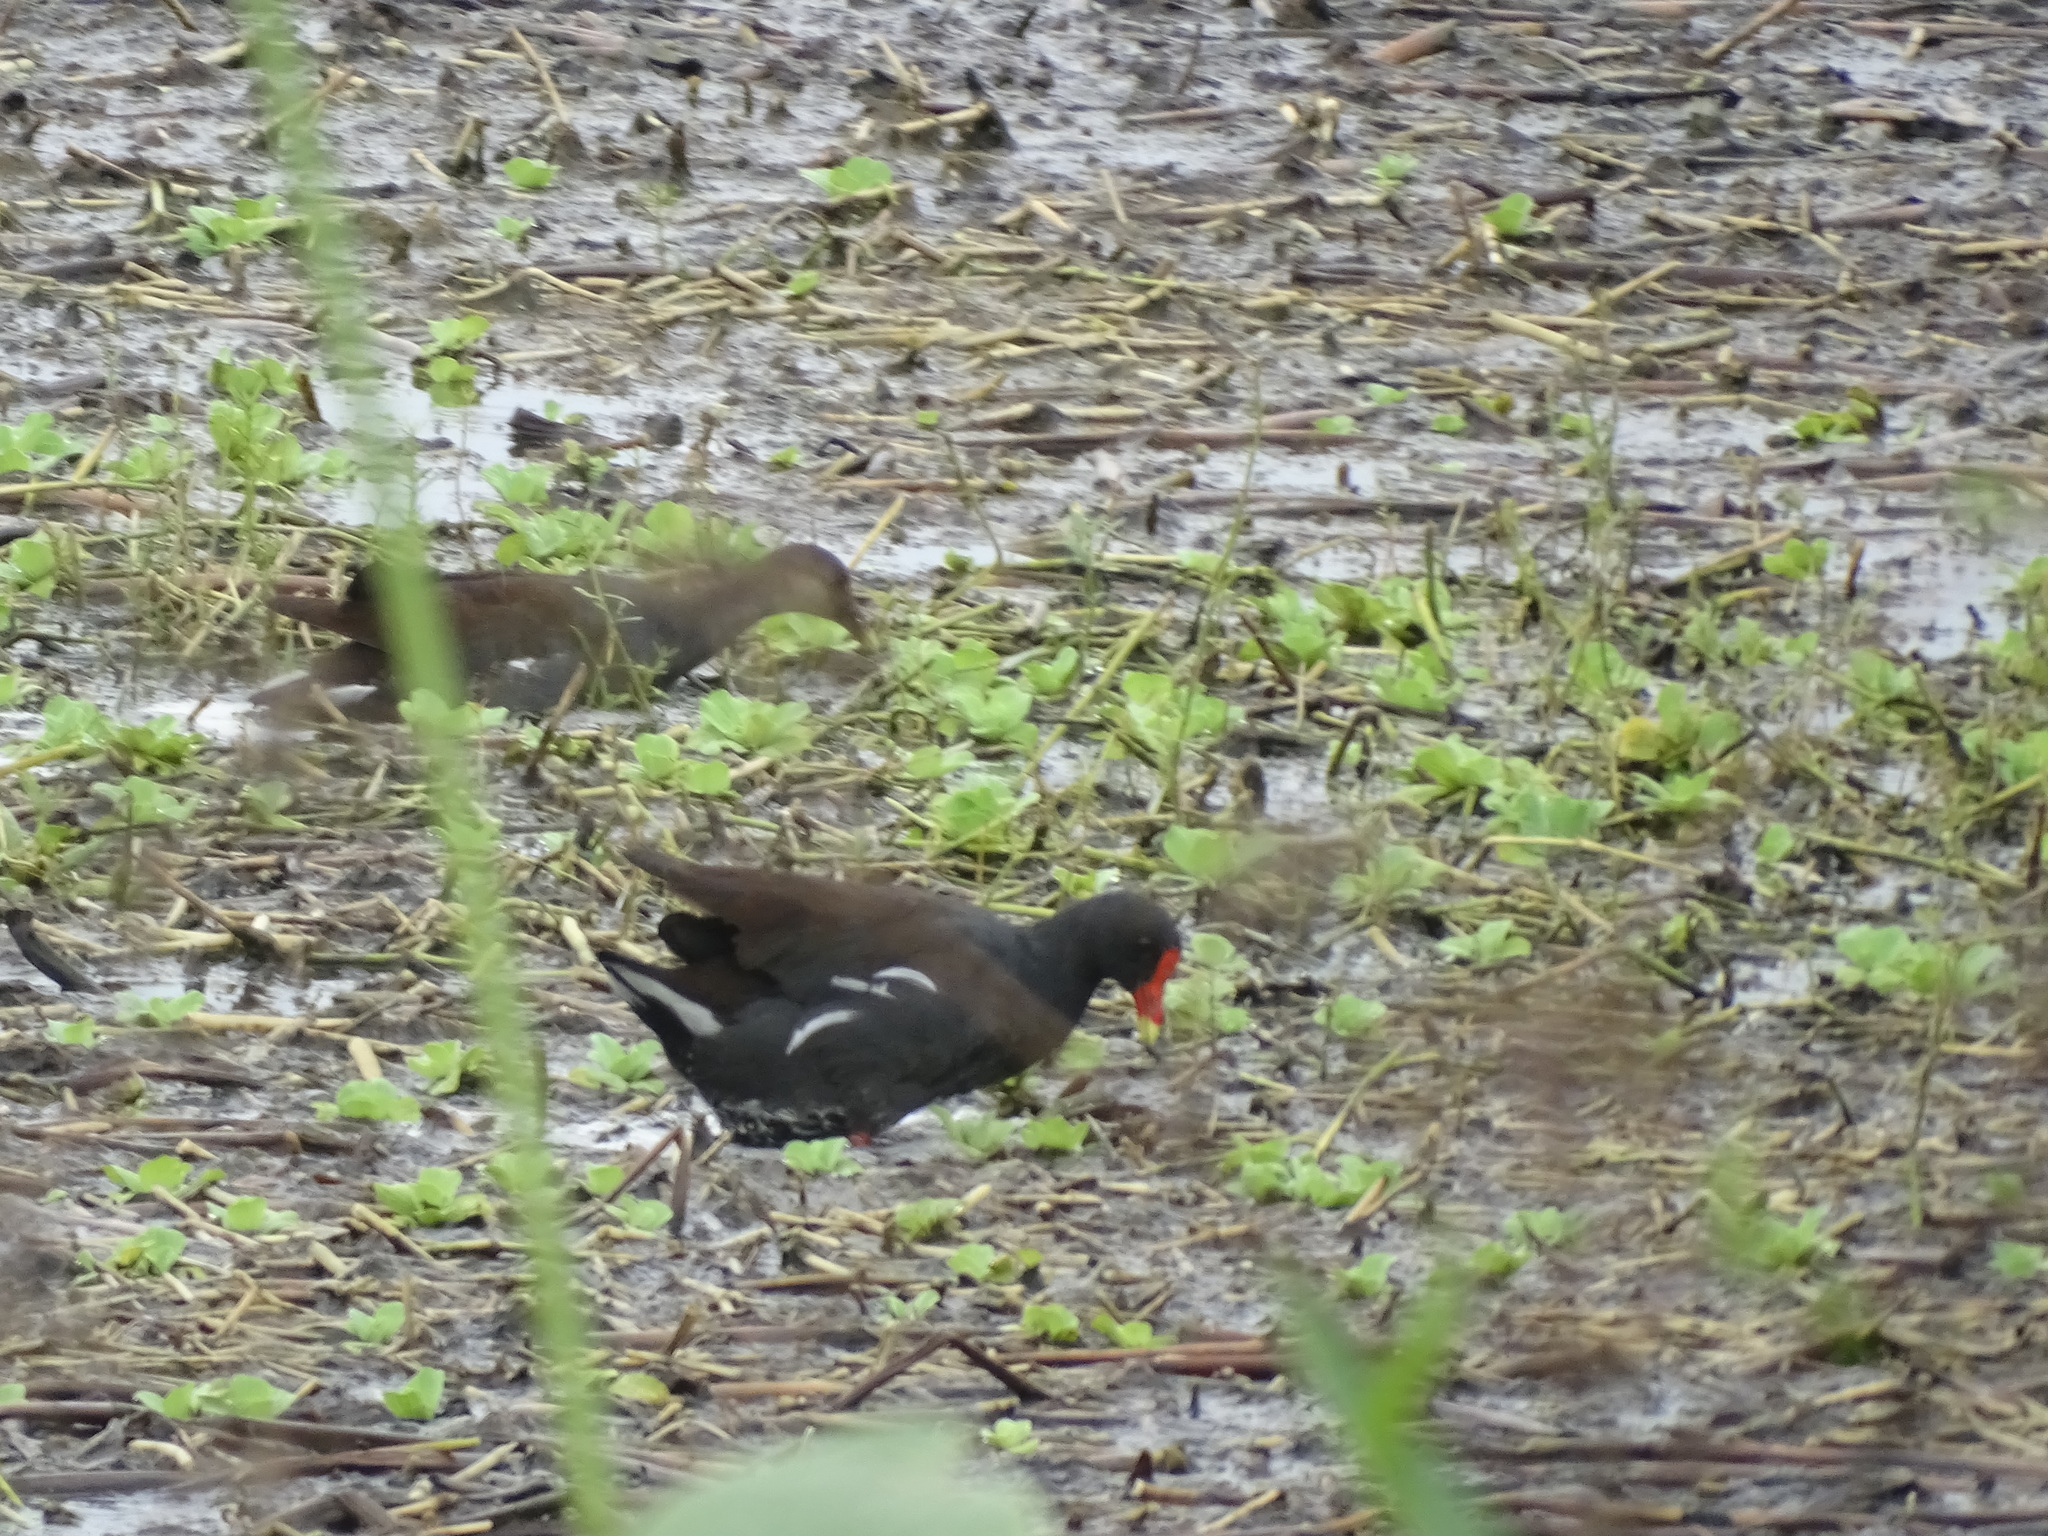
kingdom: Animalia
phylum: Chordata
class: Aves
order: Gruiformes
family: Rallidae
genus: Gallinula
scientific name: Gallinula chloropus
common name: Common moorhen
